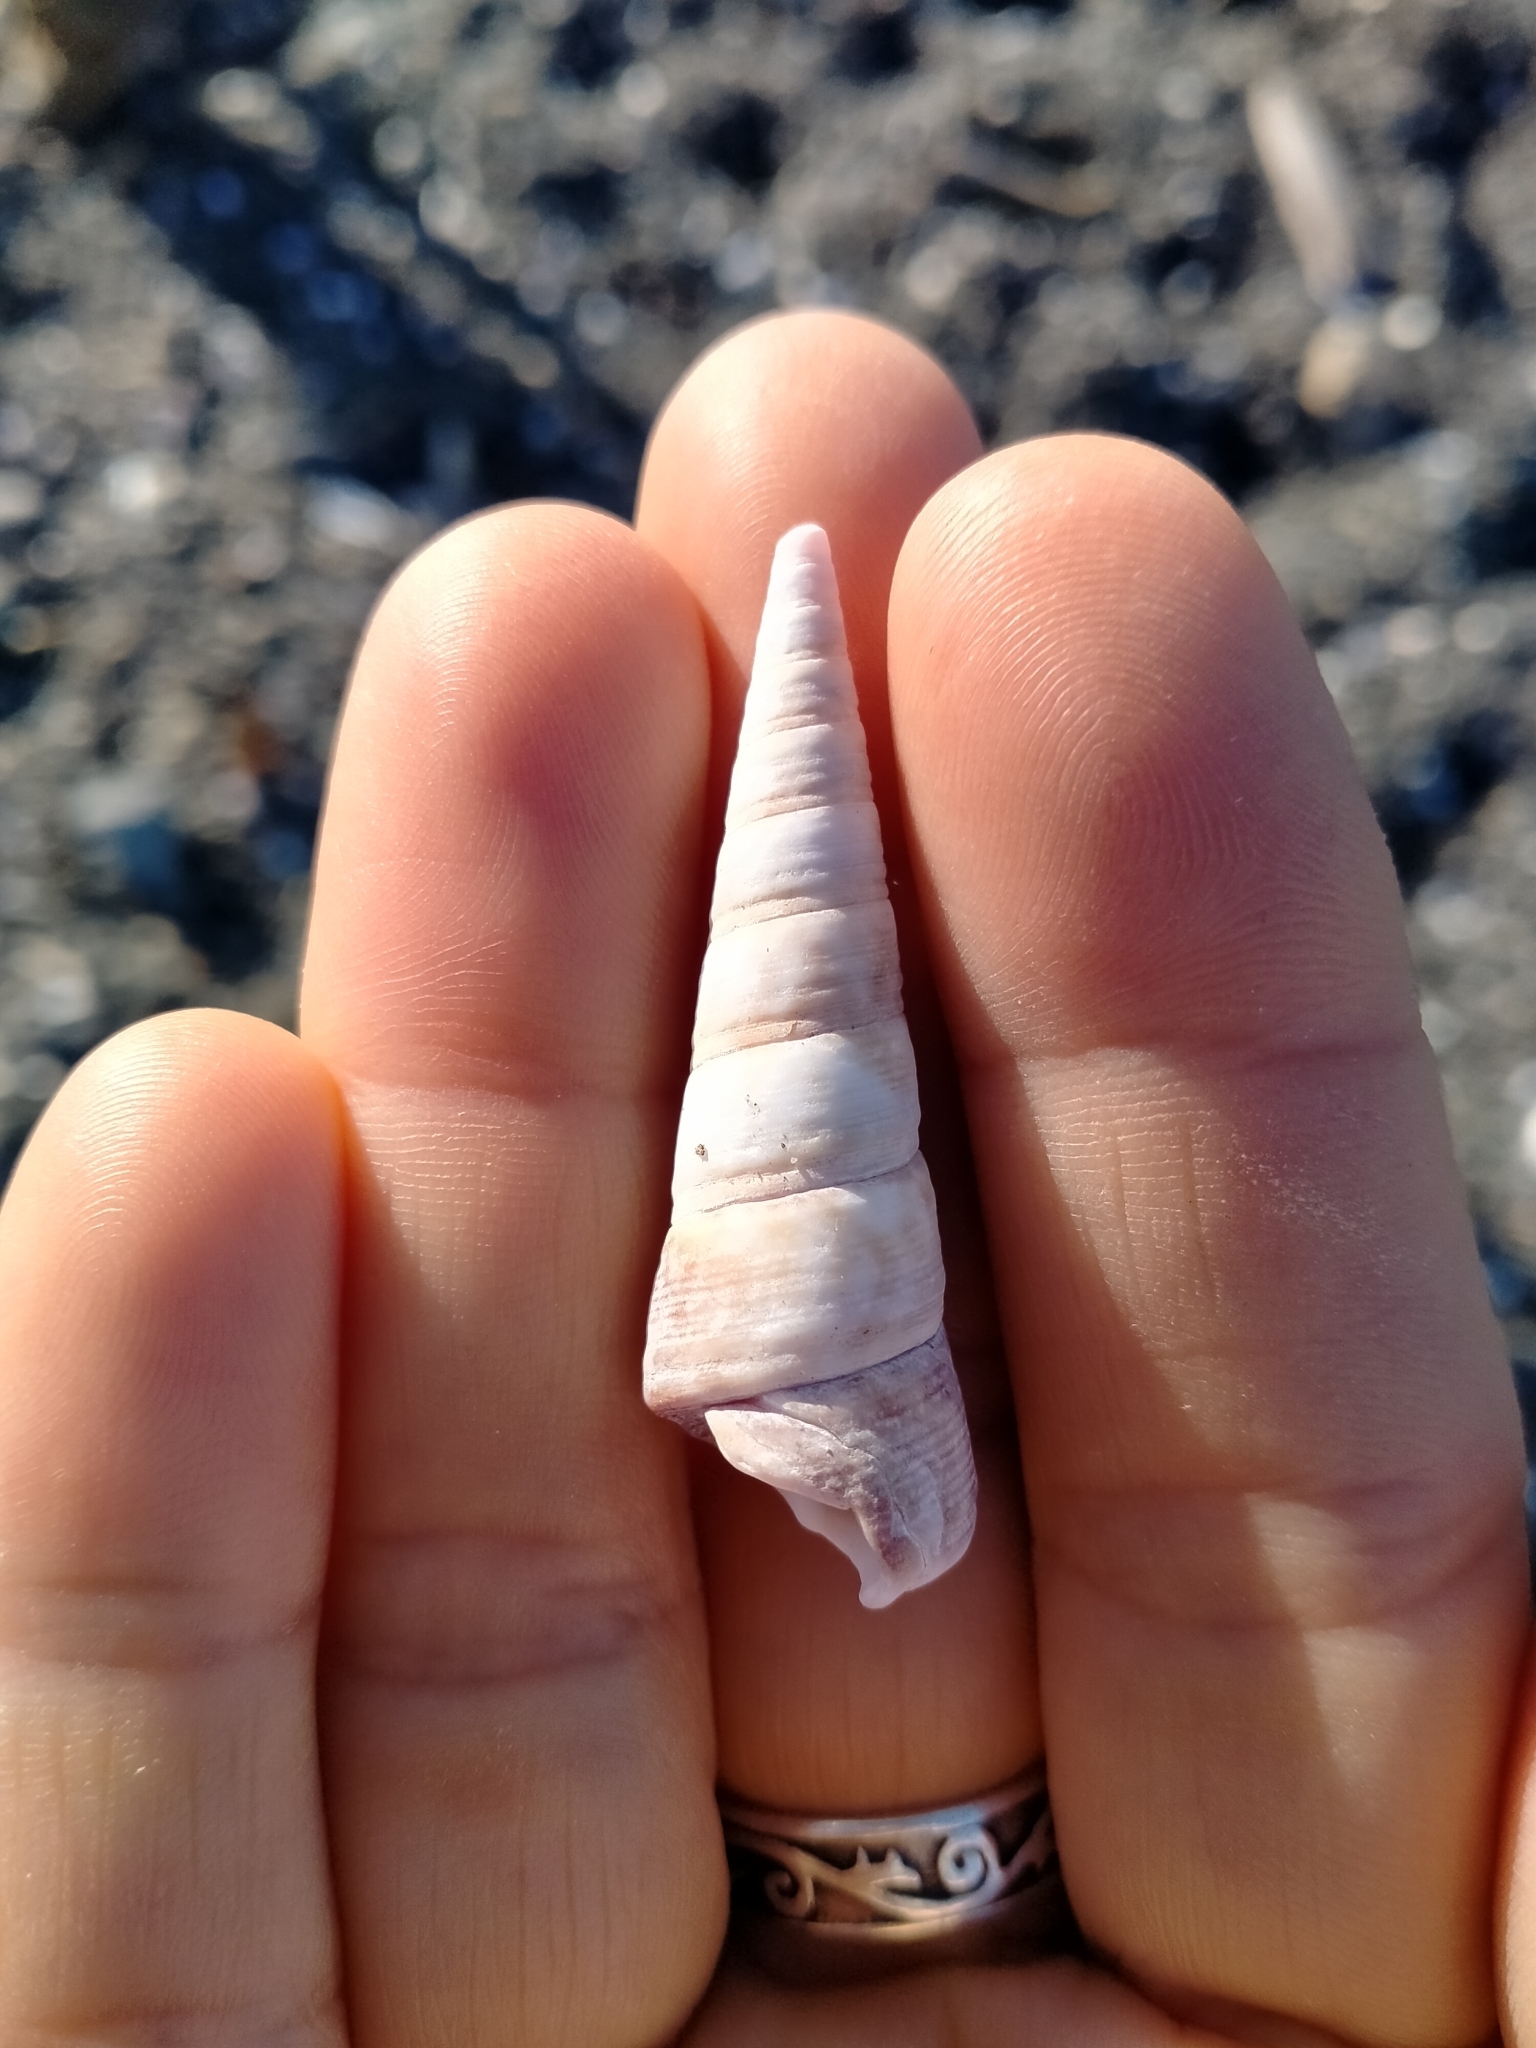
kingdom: Animalia
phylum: Mollusca
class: Gastropoda
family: Turritellidae
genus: Maoricolpus
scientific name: Maoricolpus roseus
